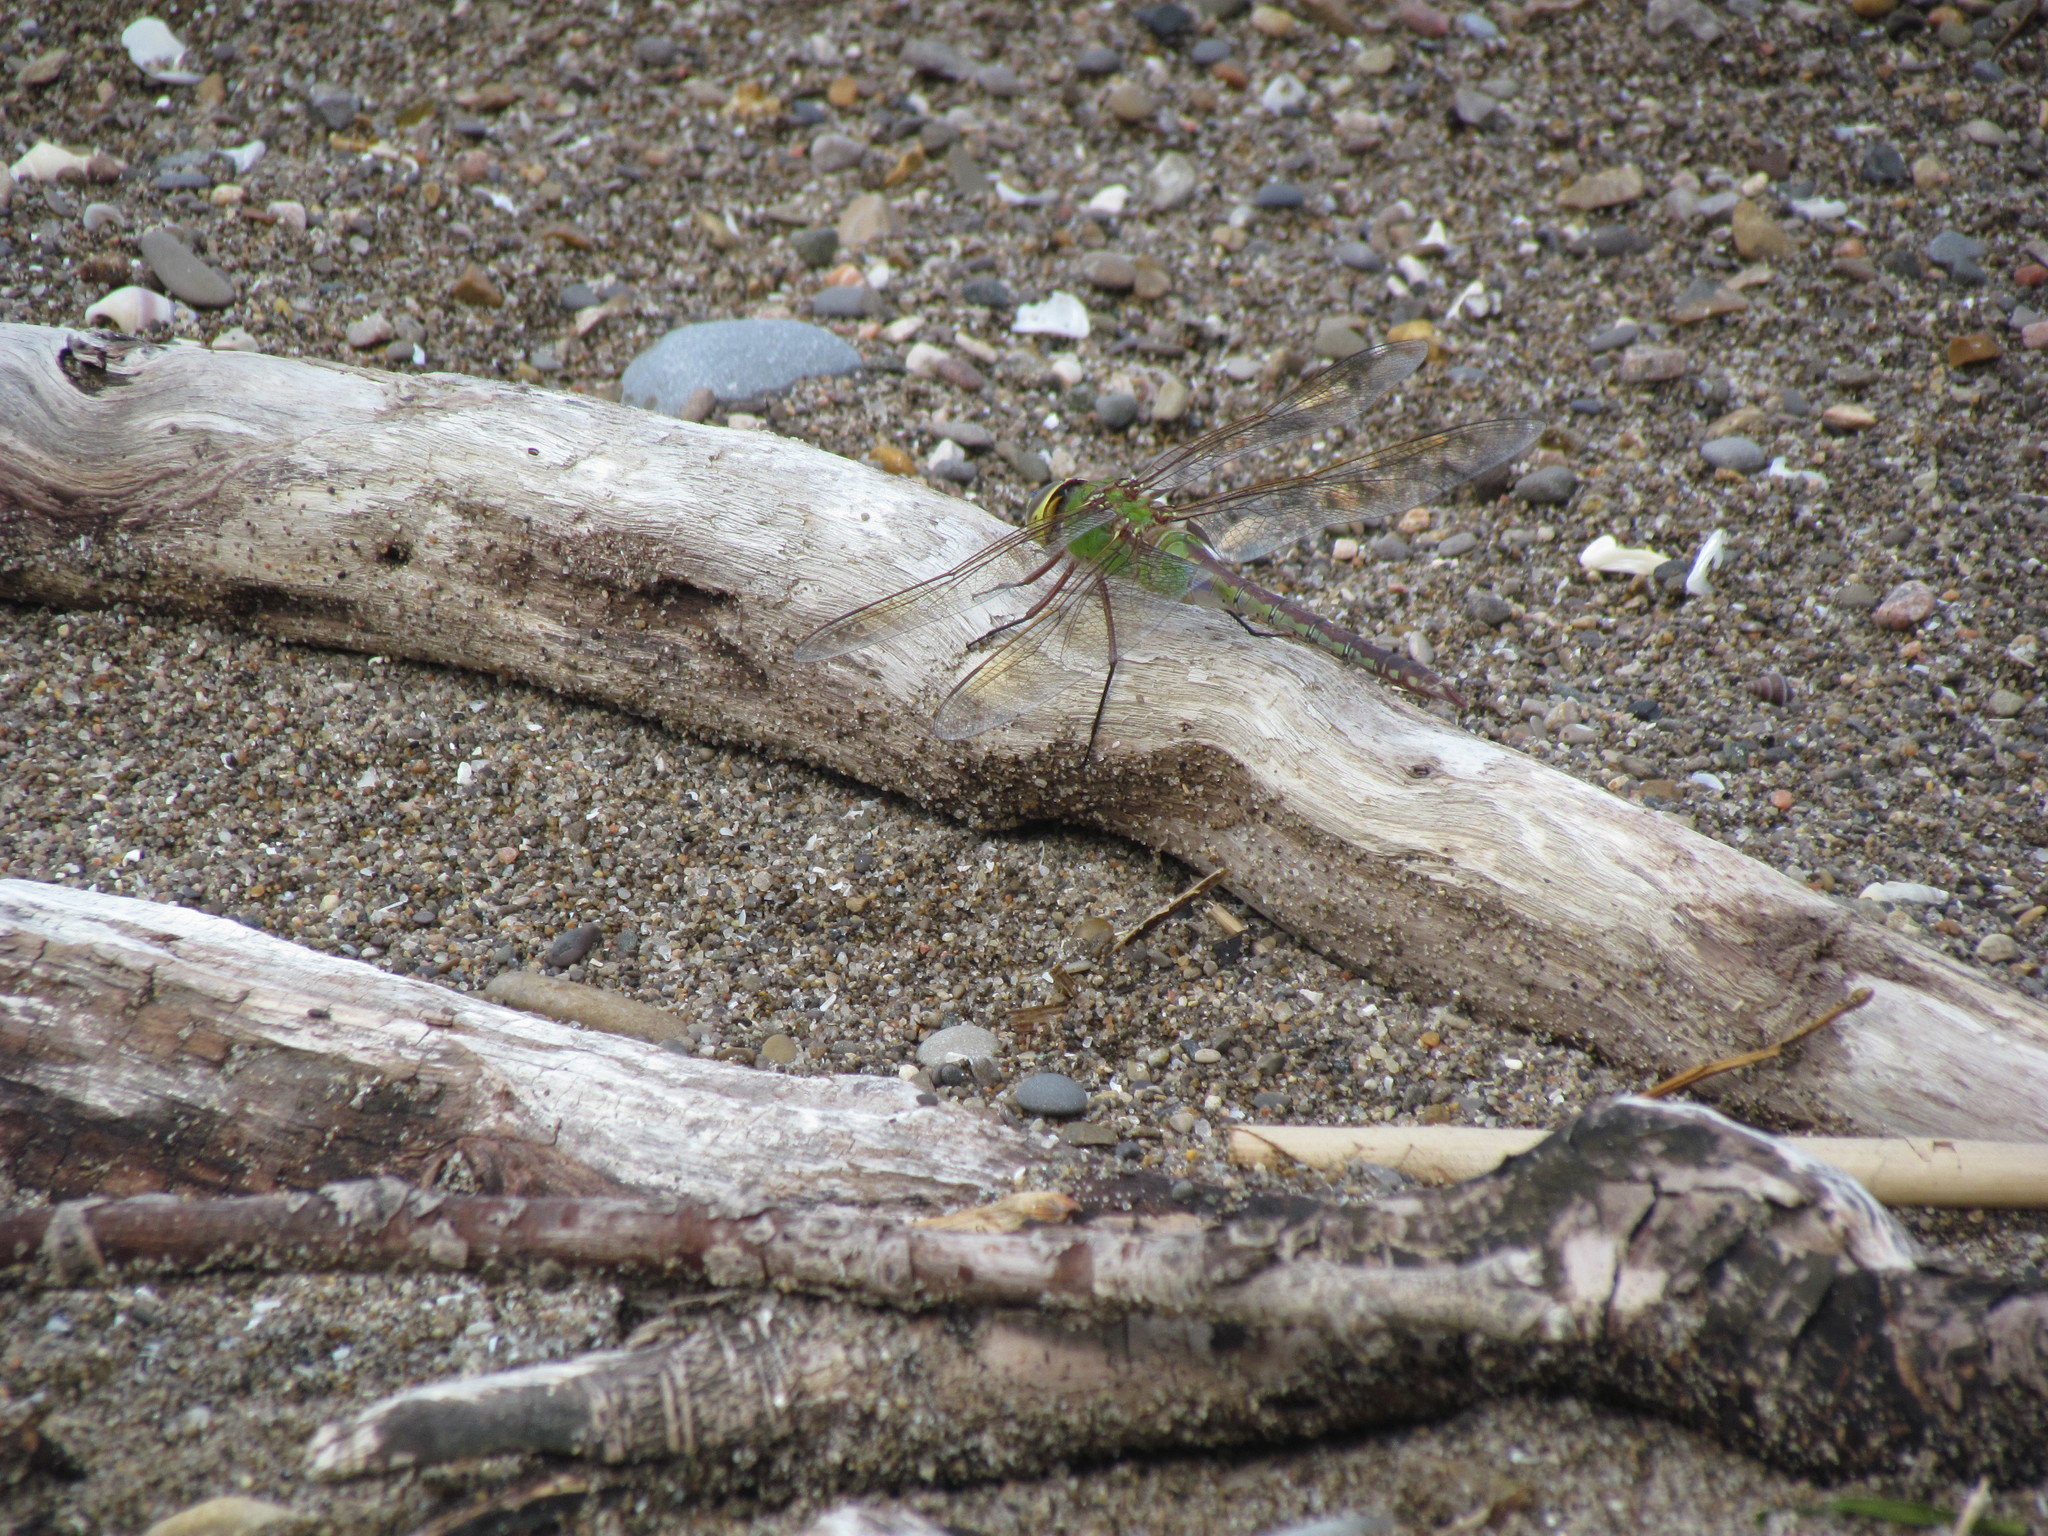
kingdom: Animalia
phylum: Arthropoda
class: Insecta
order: Odonata
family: Aeshnidae
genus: Anax
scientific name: Anax junius
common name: Common green darner
